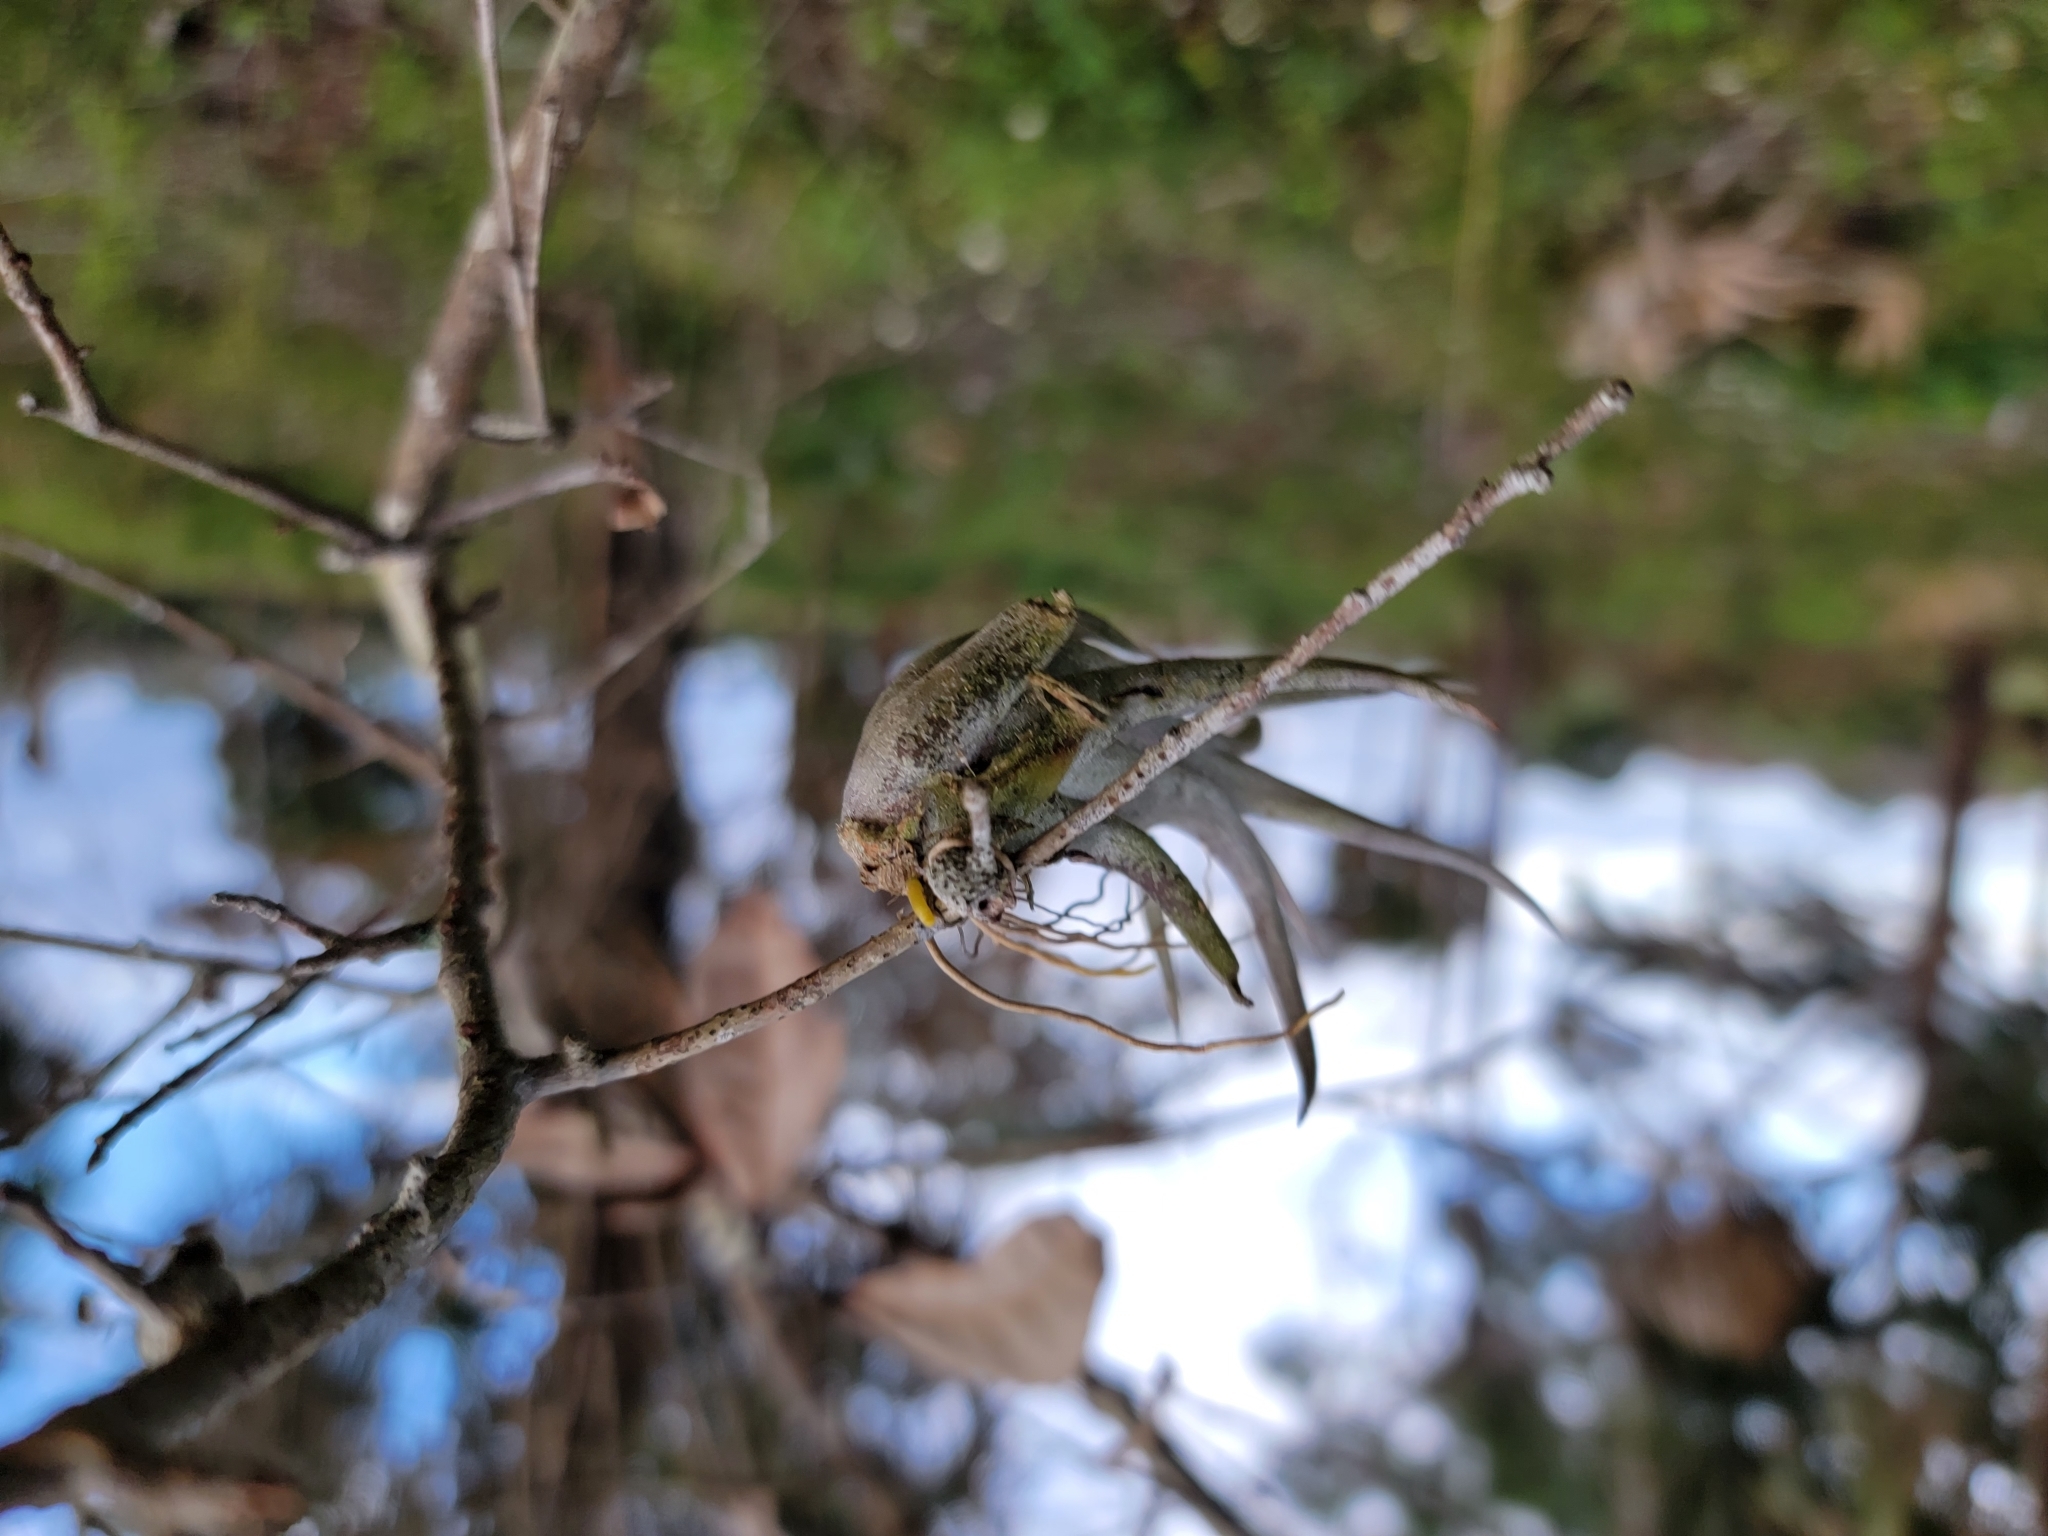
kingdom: Plantae
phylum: Tracheophyta
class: Liliopsida
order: Poales
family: Bromeliaceae
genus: Tillandsia
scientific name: Tillandsia balbisiana
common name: Northern needleleaf
